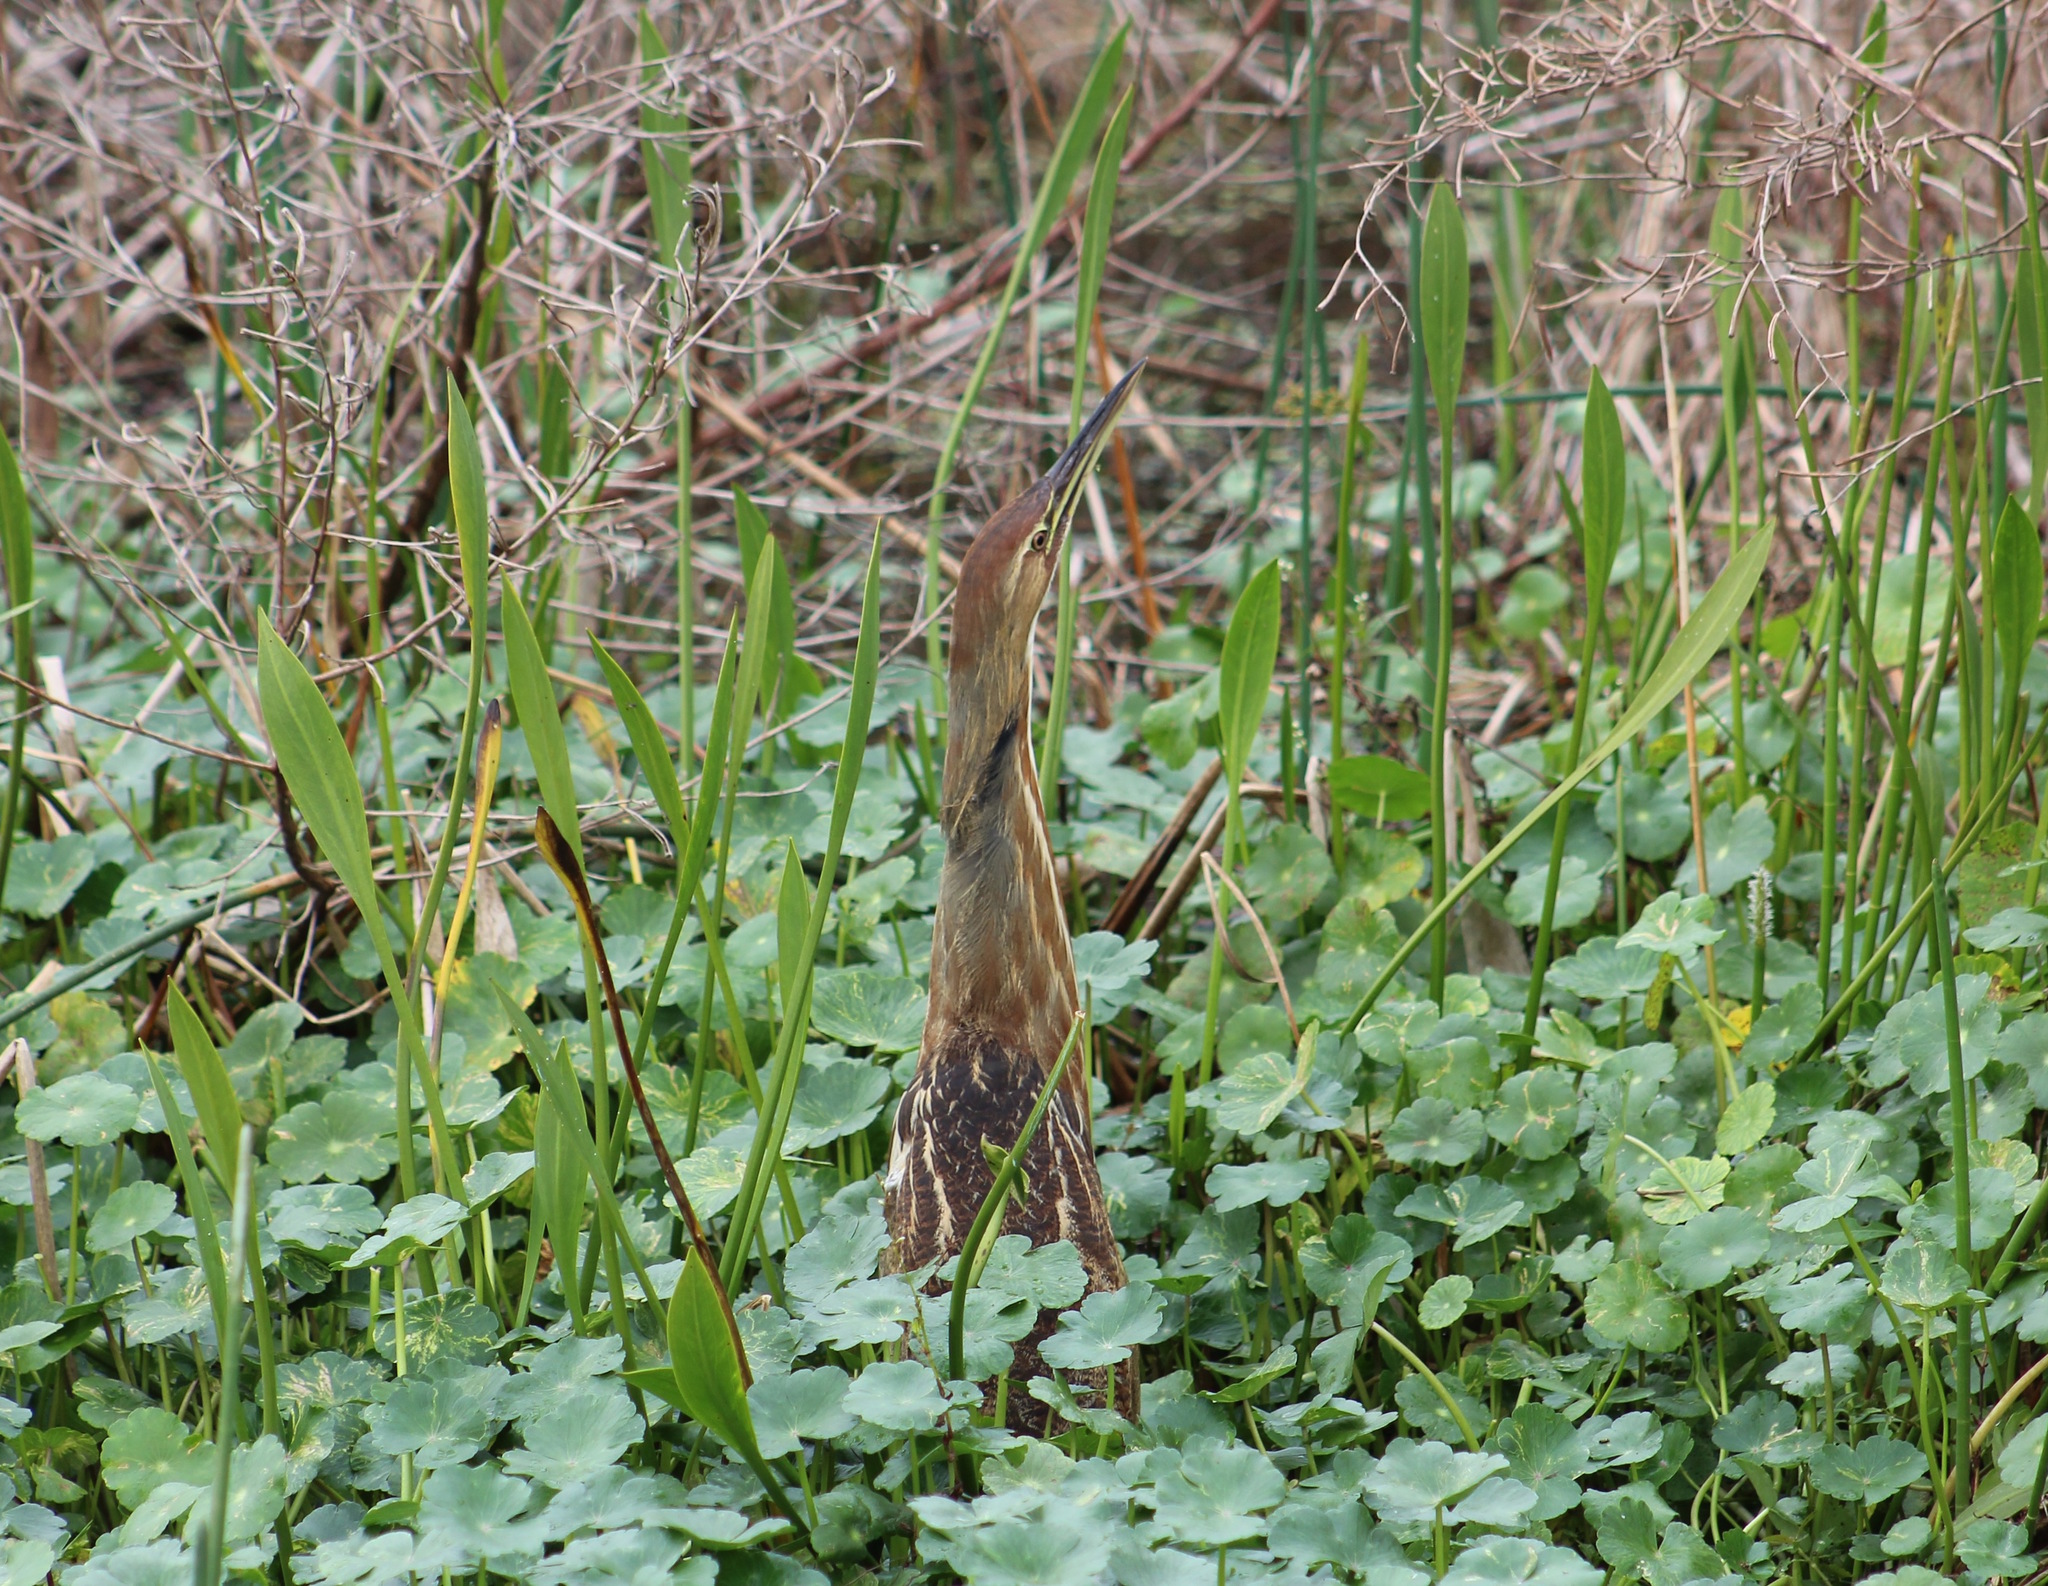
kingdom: Animalia
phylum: Chordata
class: Aves
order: Pelecaniformes
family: Ardeidae
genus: Botaurus
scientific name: Botaurus lentiginosus
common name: American bittern
